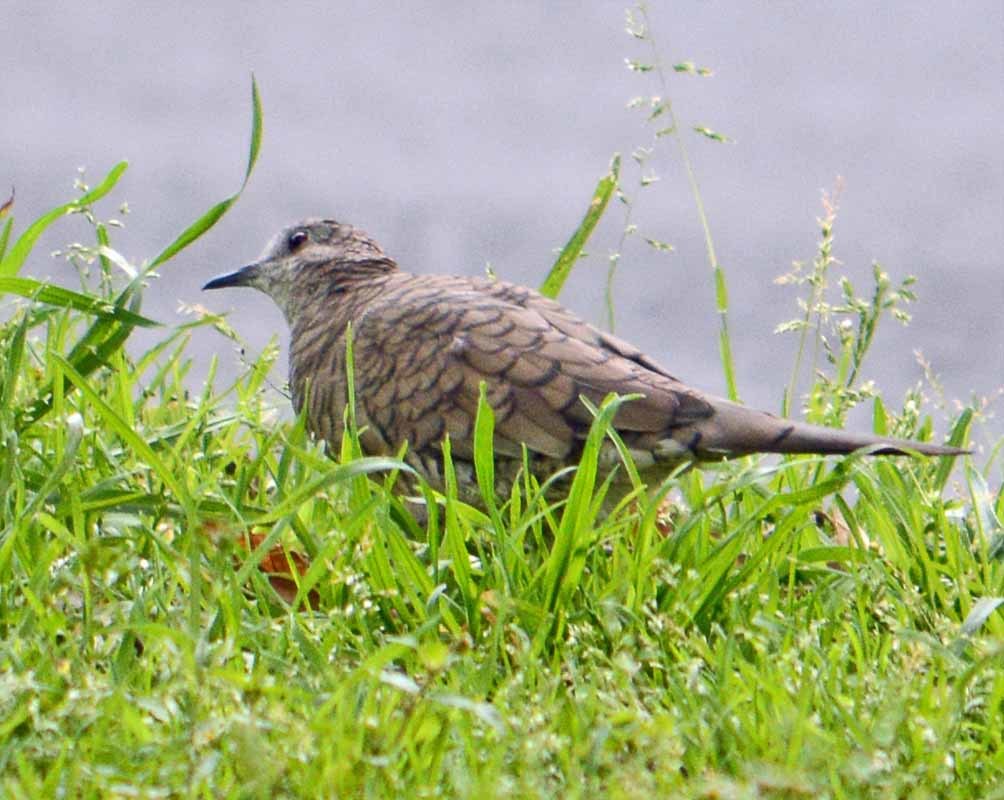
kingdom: Animalia
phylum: Chordata
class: Aves
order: Columbiformes
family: Columbidae
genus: Columbina
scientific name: Columbina inca
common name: Inca dove
